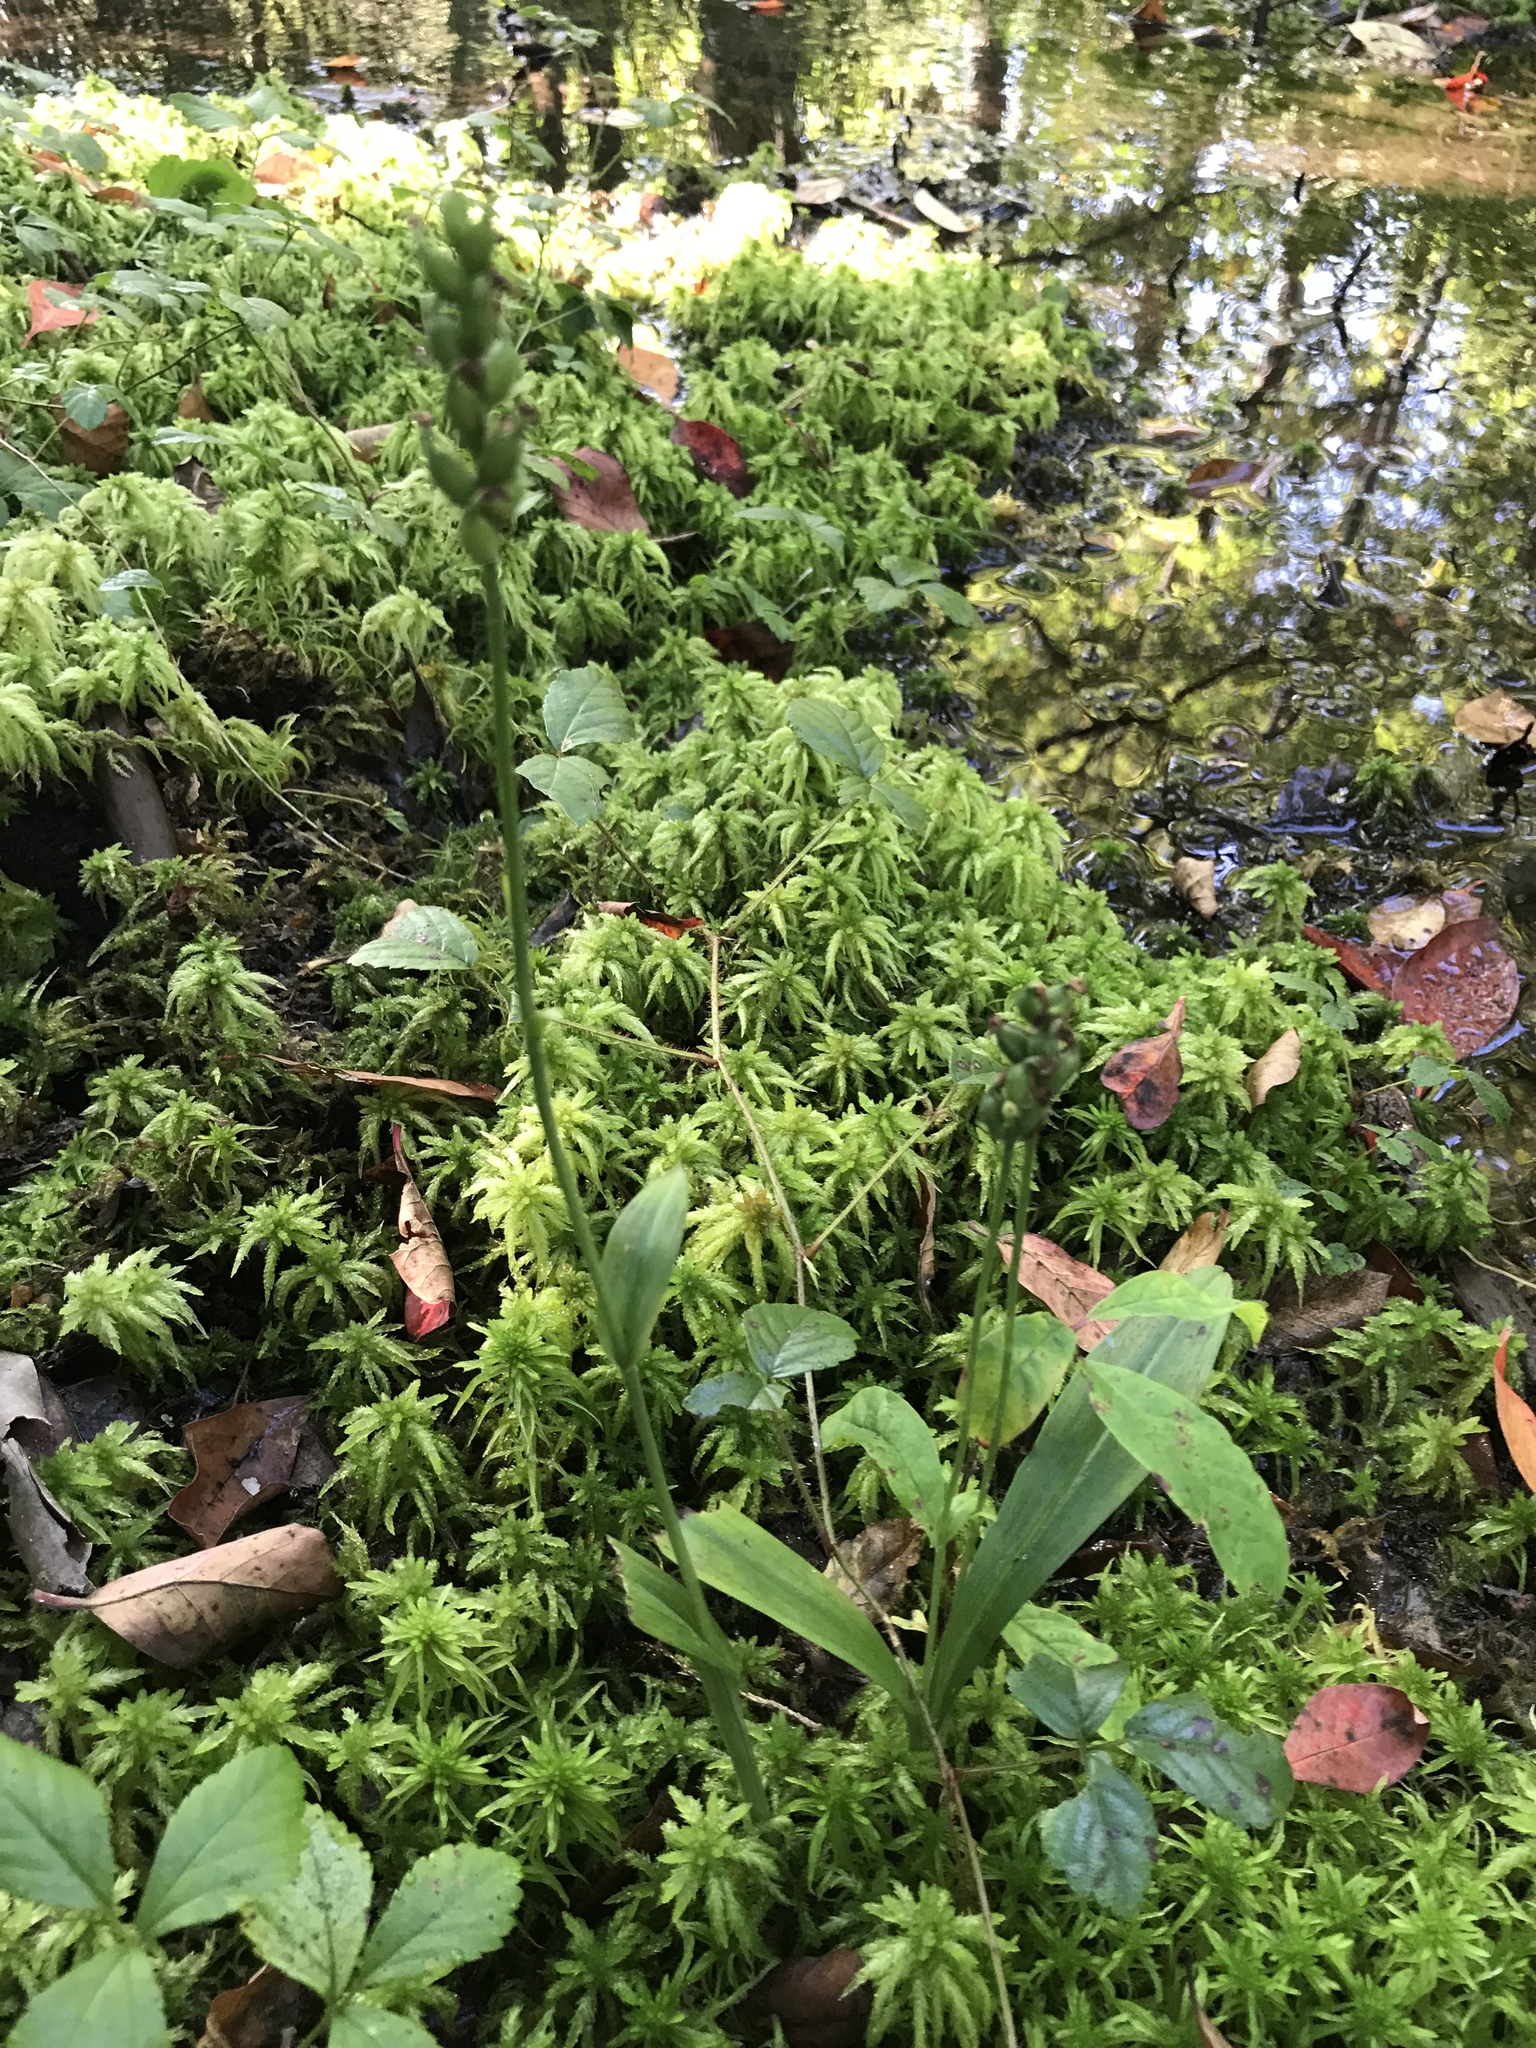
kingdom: Plantae
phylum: Tracheophyta
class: Liliopsida
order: Asparagales
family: Orchidaceae
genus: Platanthera
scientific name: Platanthera clavellata
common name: Club-spur orchid
